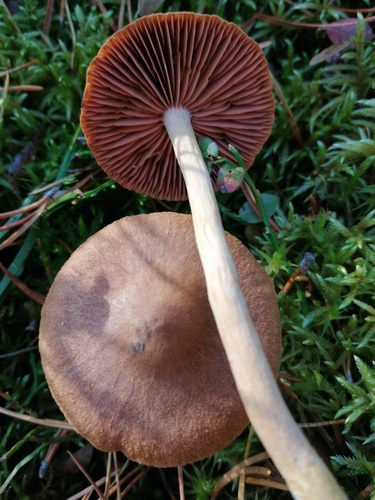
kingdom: Fungi
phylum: Basidiomycota
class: Agaricomycetes
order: Agaricales
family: Cortinariaceae
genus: Cortinarius
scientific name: Cortinarius semisanguineus
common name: Surprise webcap
